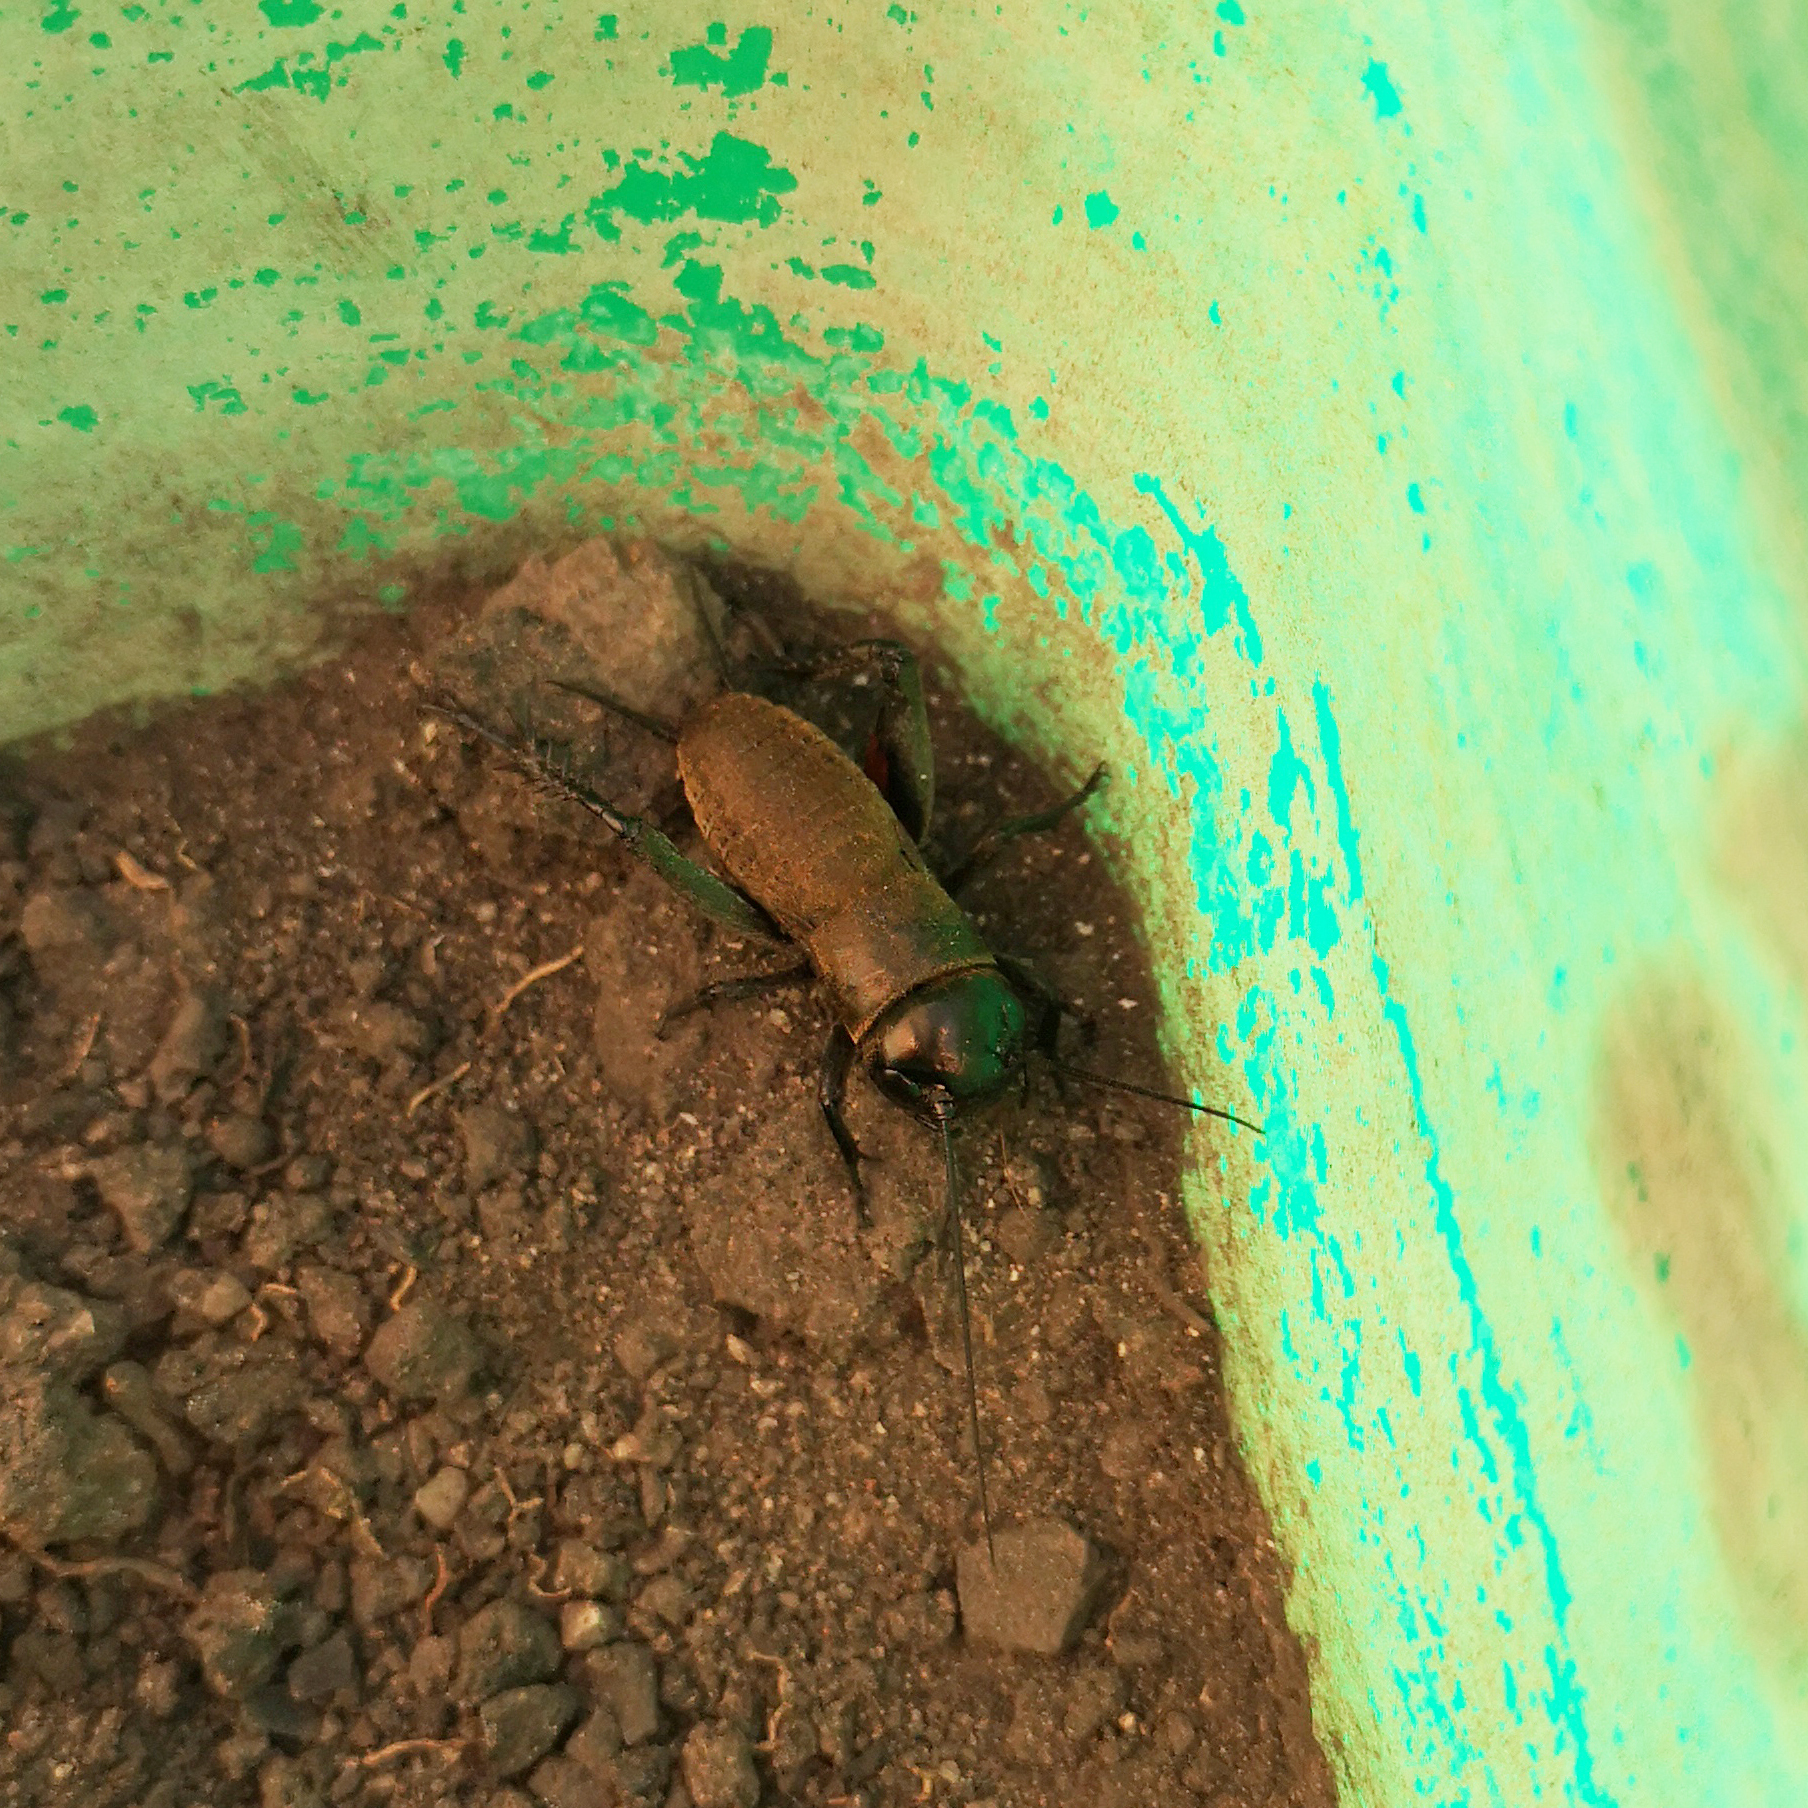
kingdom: Animalia
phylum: Arthropoda
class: Insecta
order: Orthoptera
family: Gryllidae
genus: Gryllus
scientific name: Gryllus campestris
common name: Field cricket
